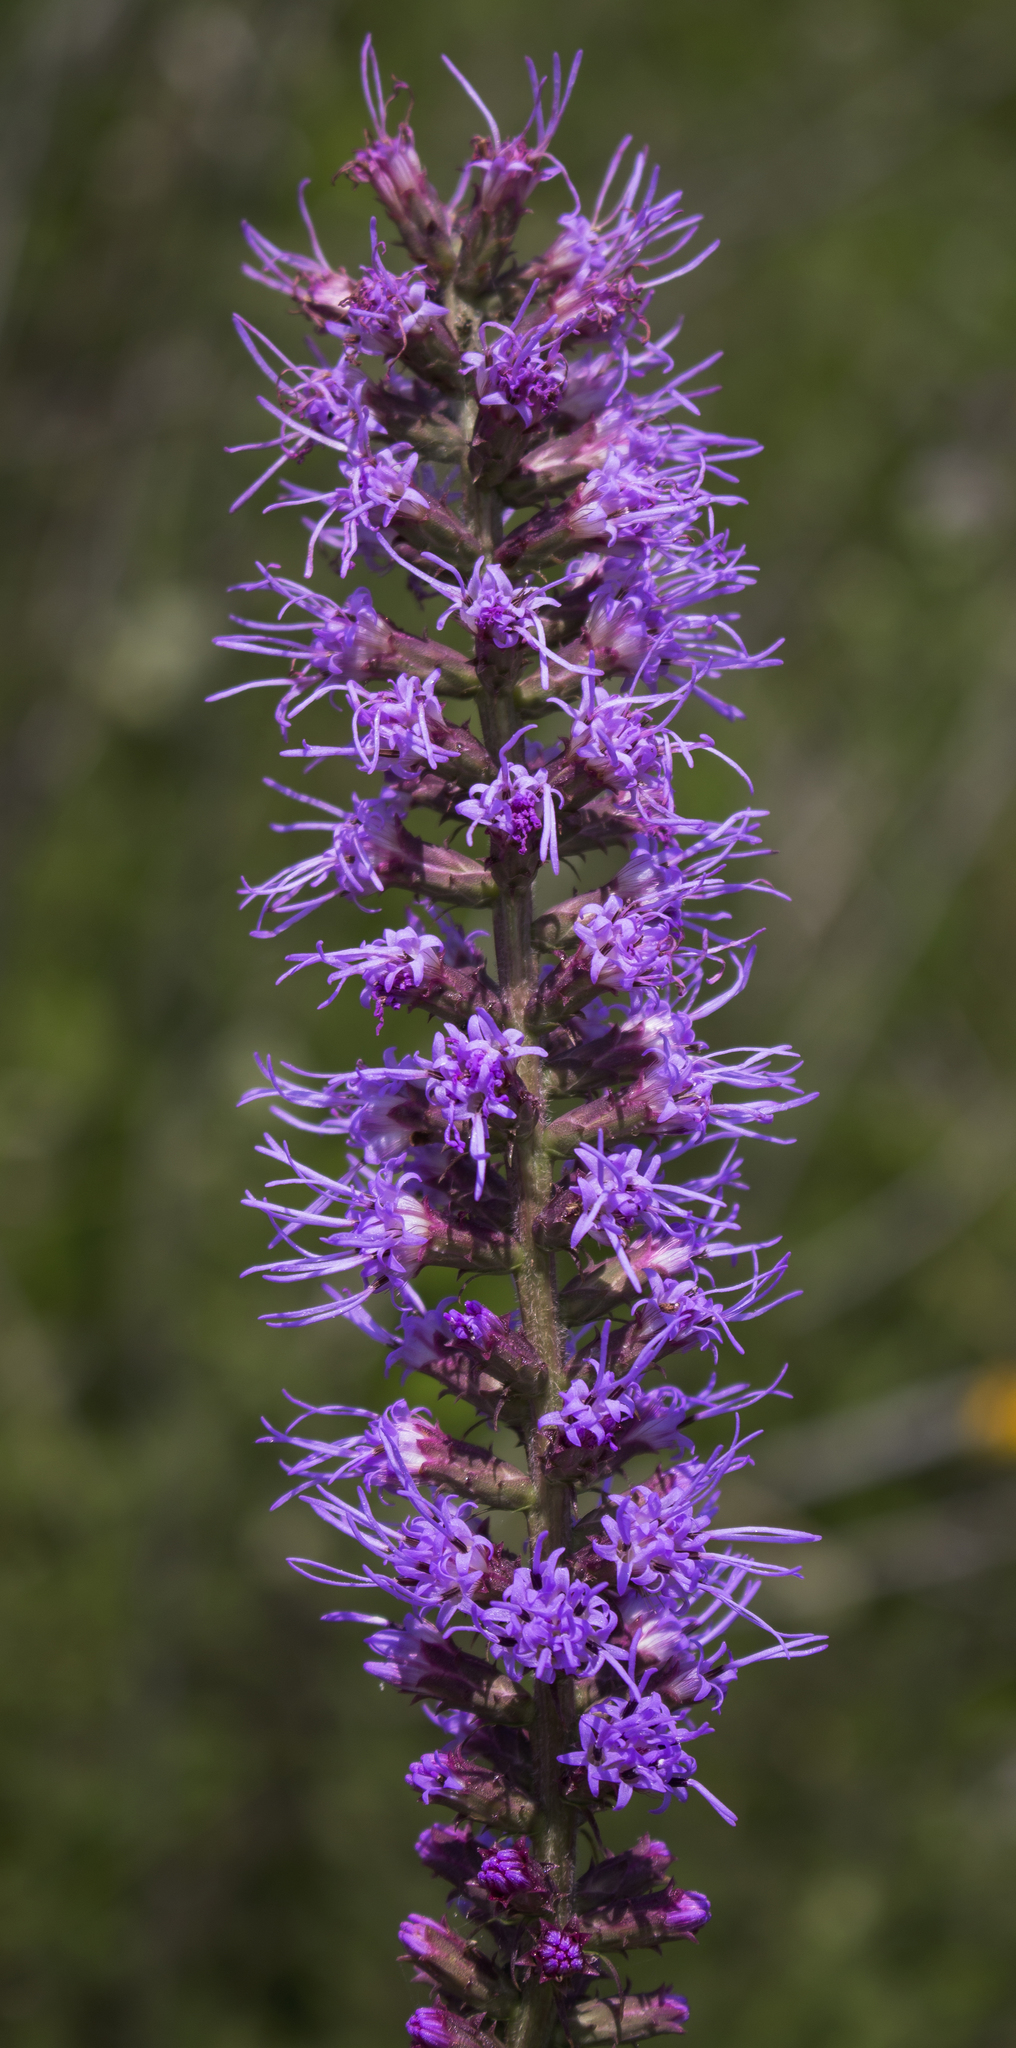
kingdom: Plantae
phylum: Tracheophyta
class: Magnoliopsida
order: Asterales
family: Asteraceae
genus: Liatris
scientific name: Liatris pycnostachya
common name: Cattail gayfeather
